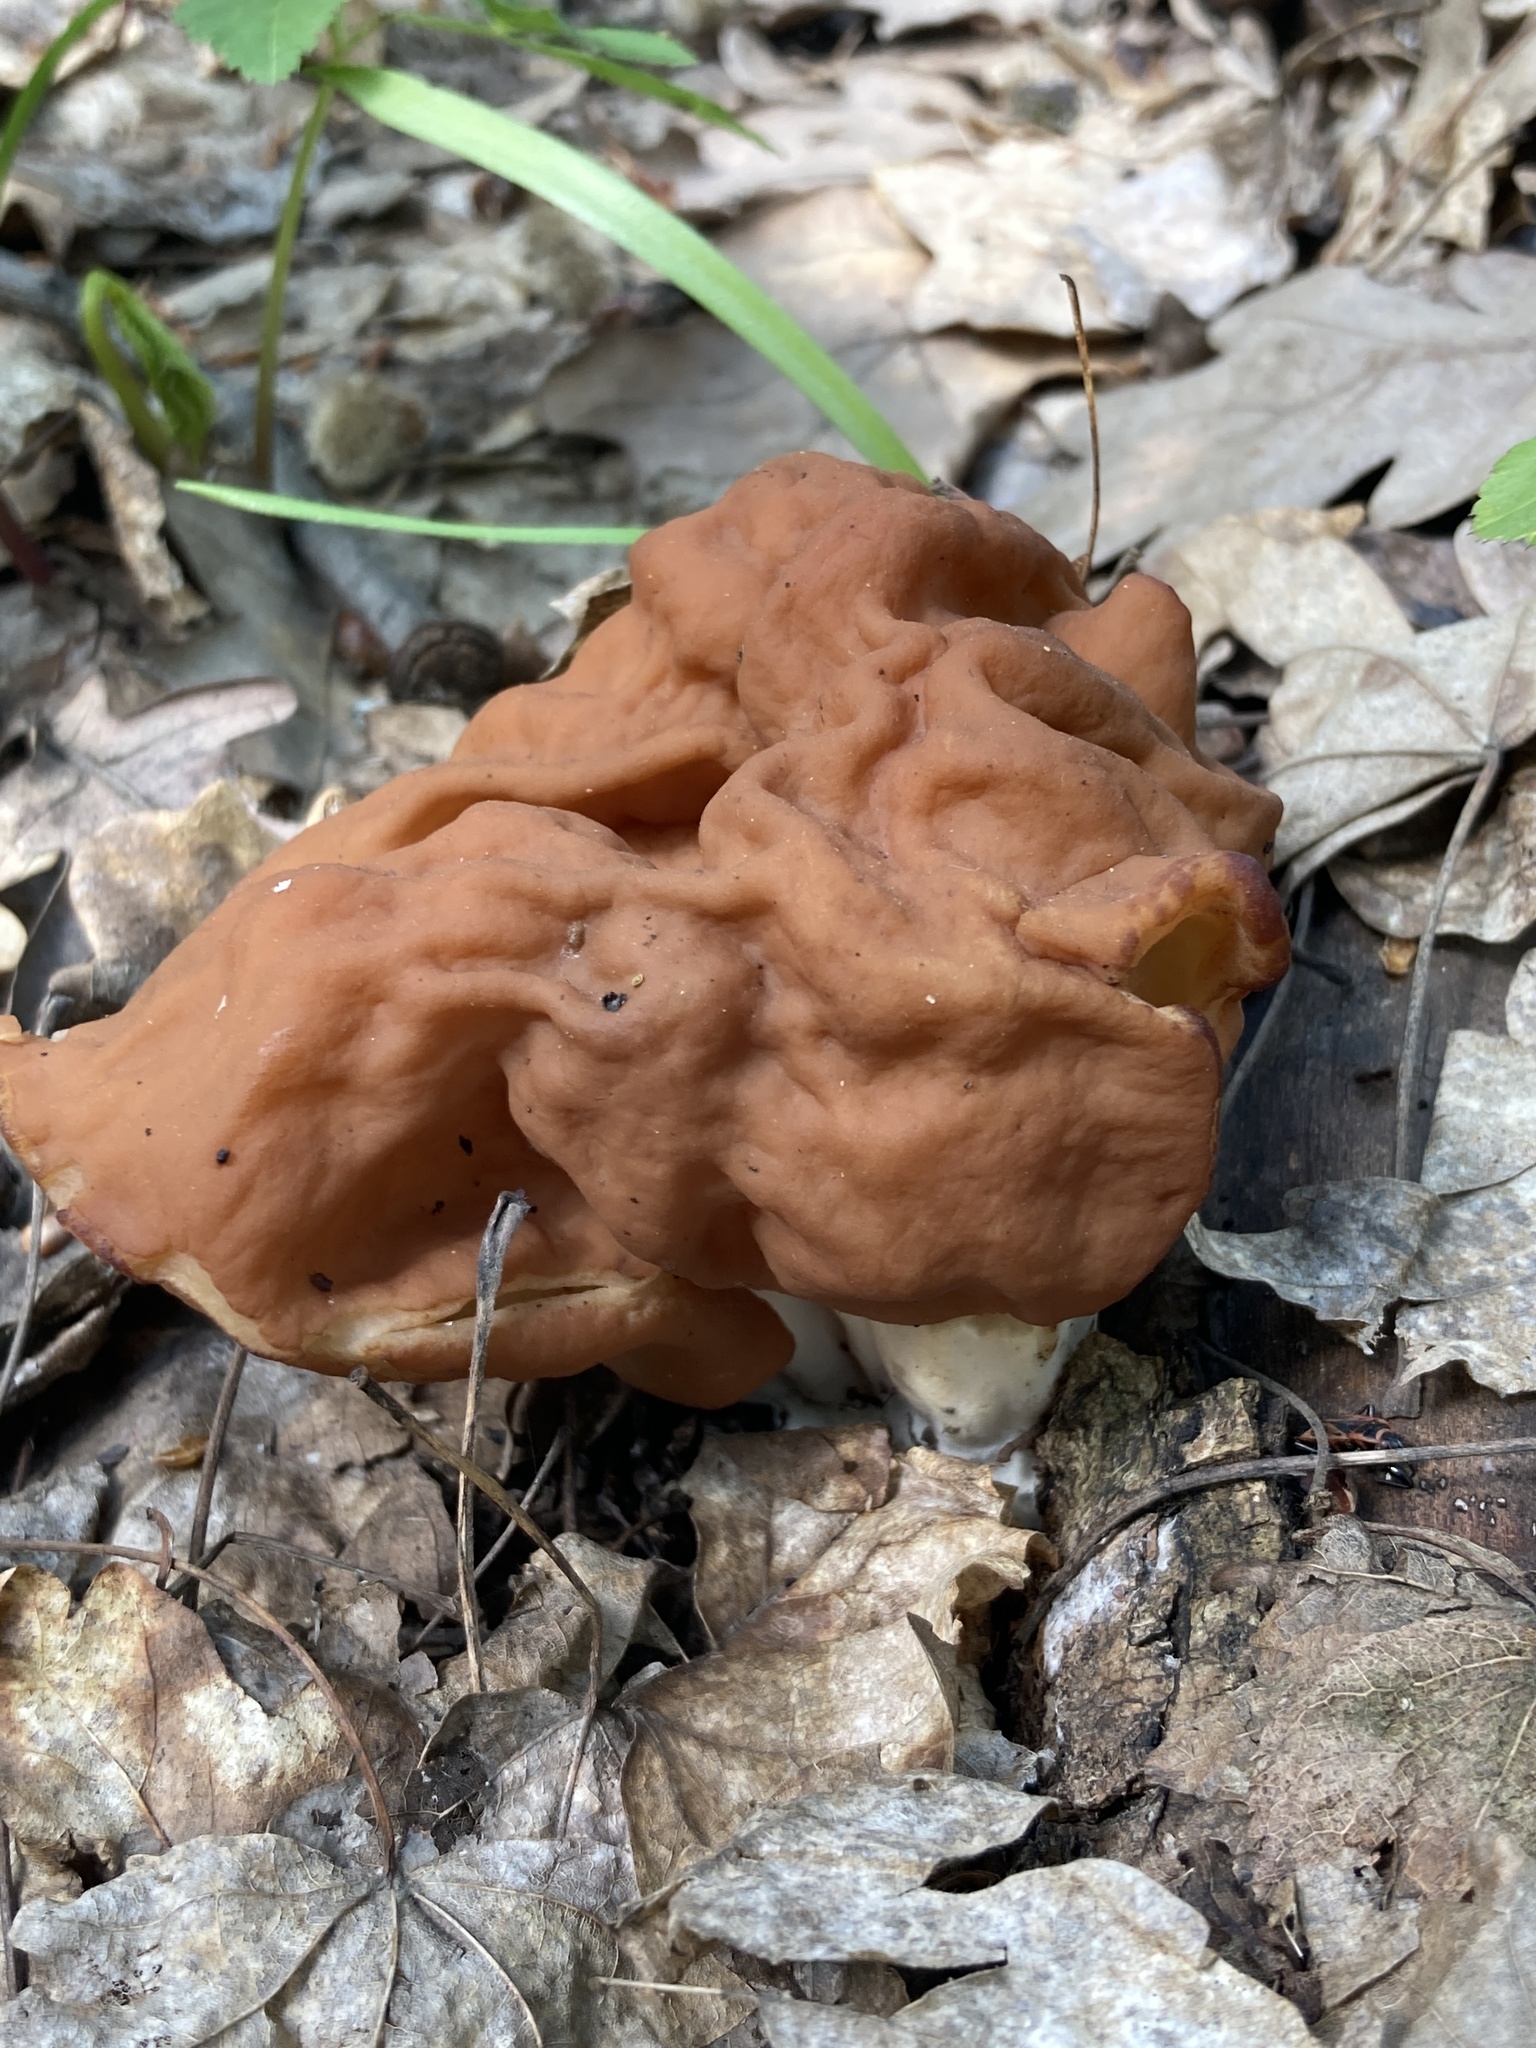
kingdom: Fungi
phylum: Ascomycota
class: Pezizomycetes
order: Pezizales
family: Discinaceae
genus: Discina
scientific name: Discina fastigiata
